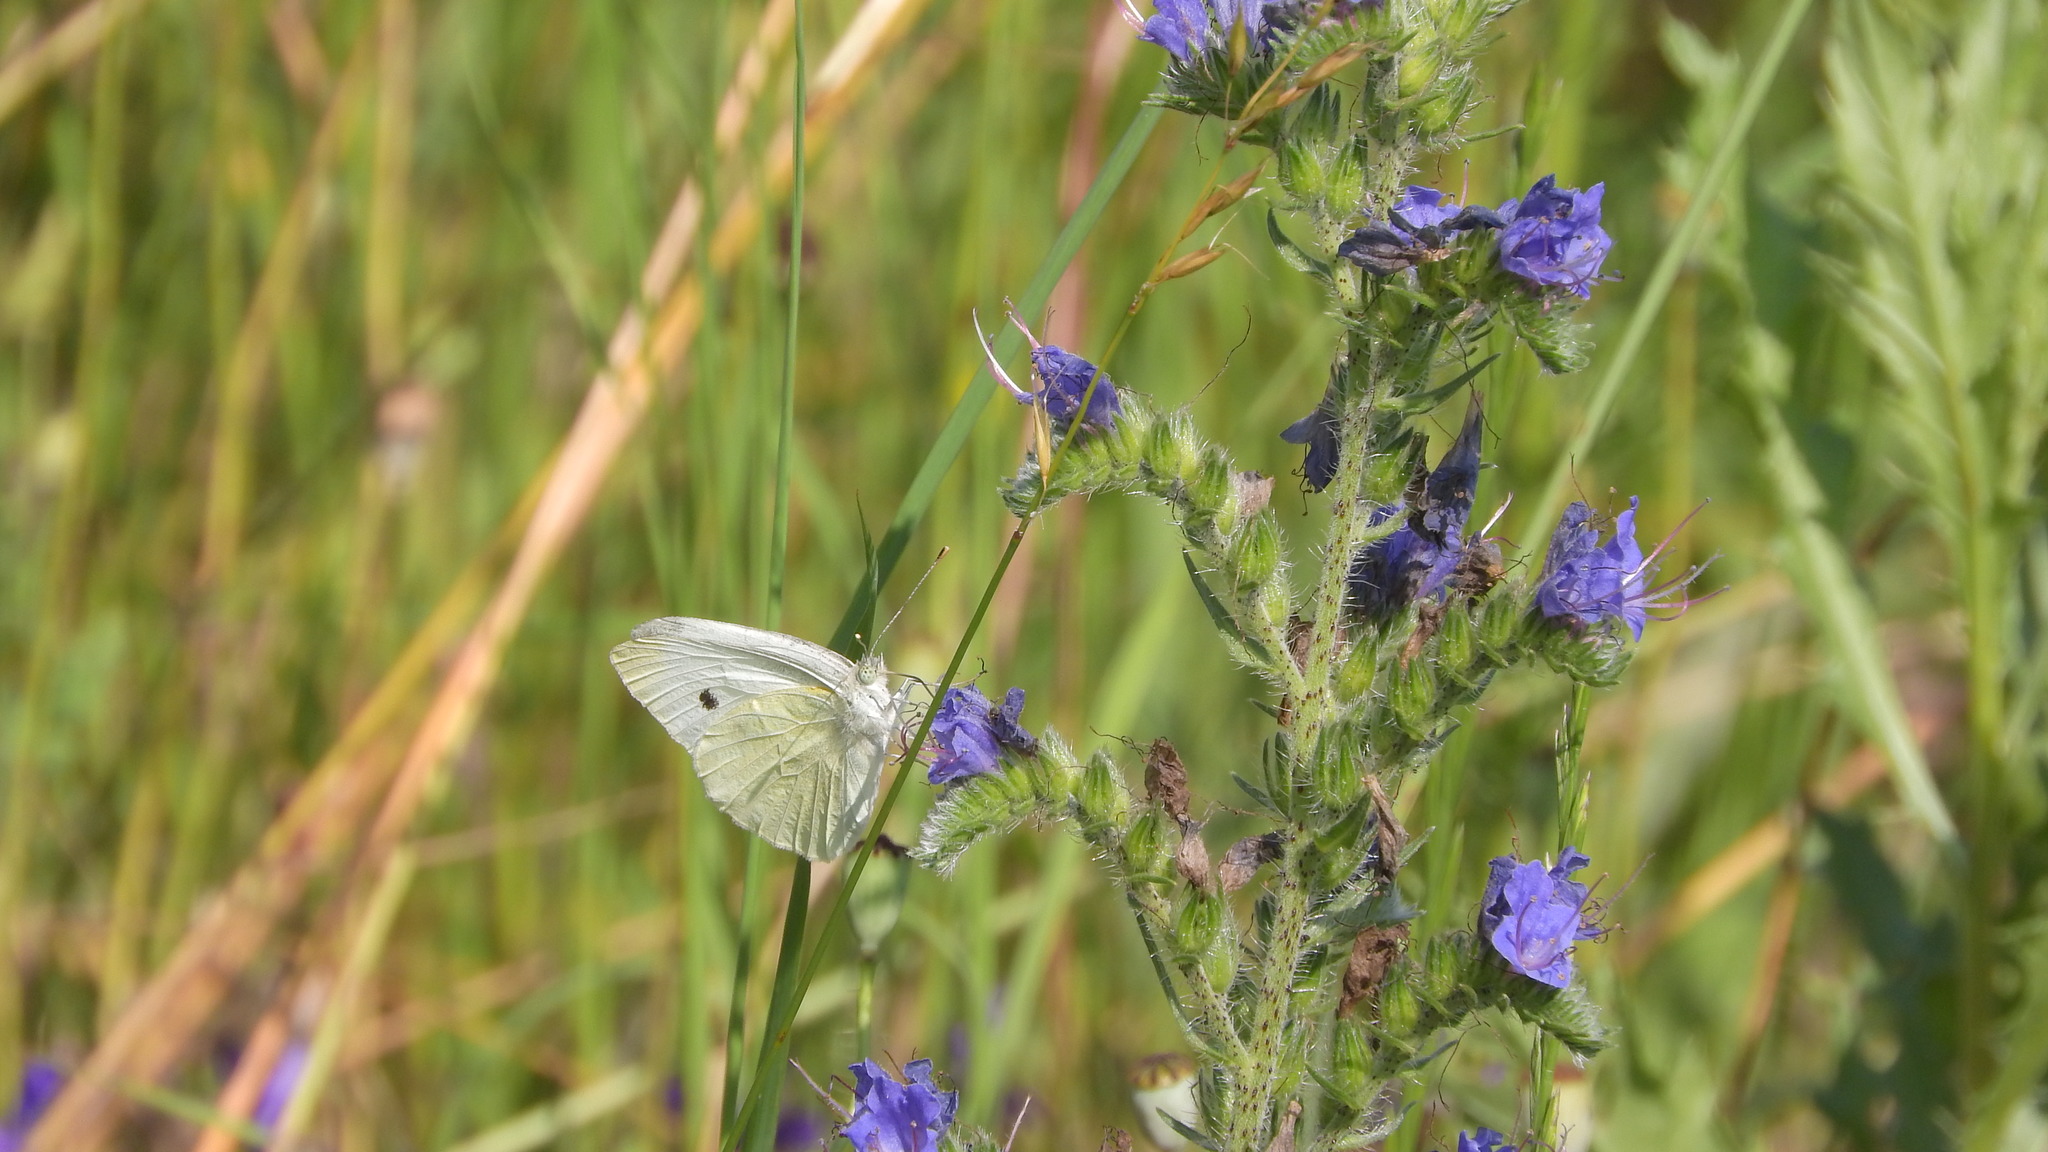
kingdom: Animalia
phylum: Arthropoda
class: Insecta
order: Lepidoptera
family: Pieridae
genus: Pieris
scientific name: Pieris rapae
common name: Small white
